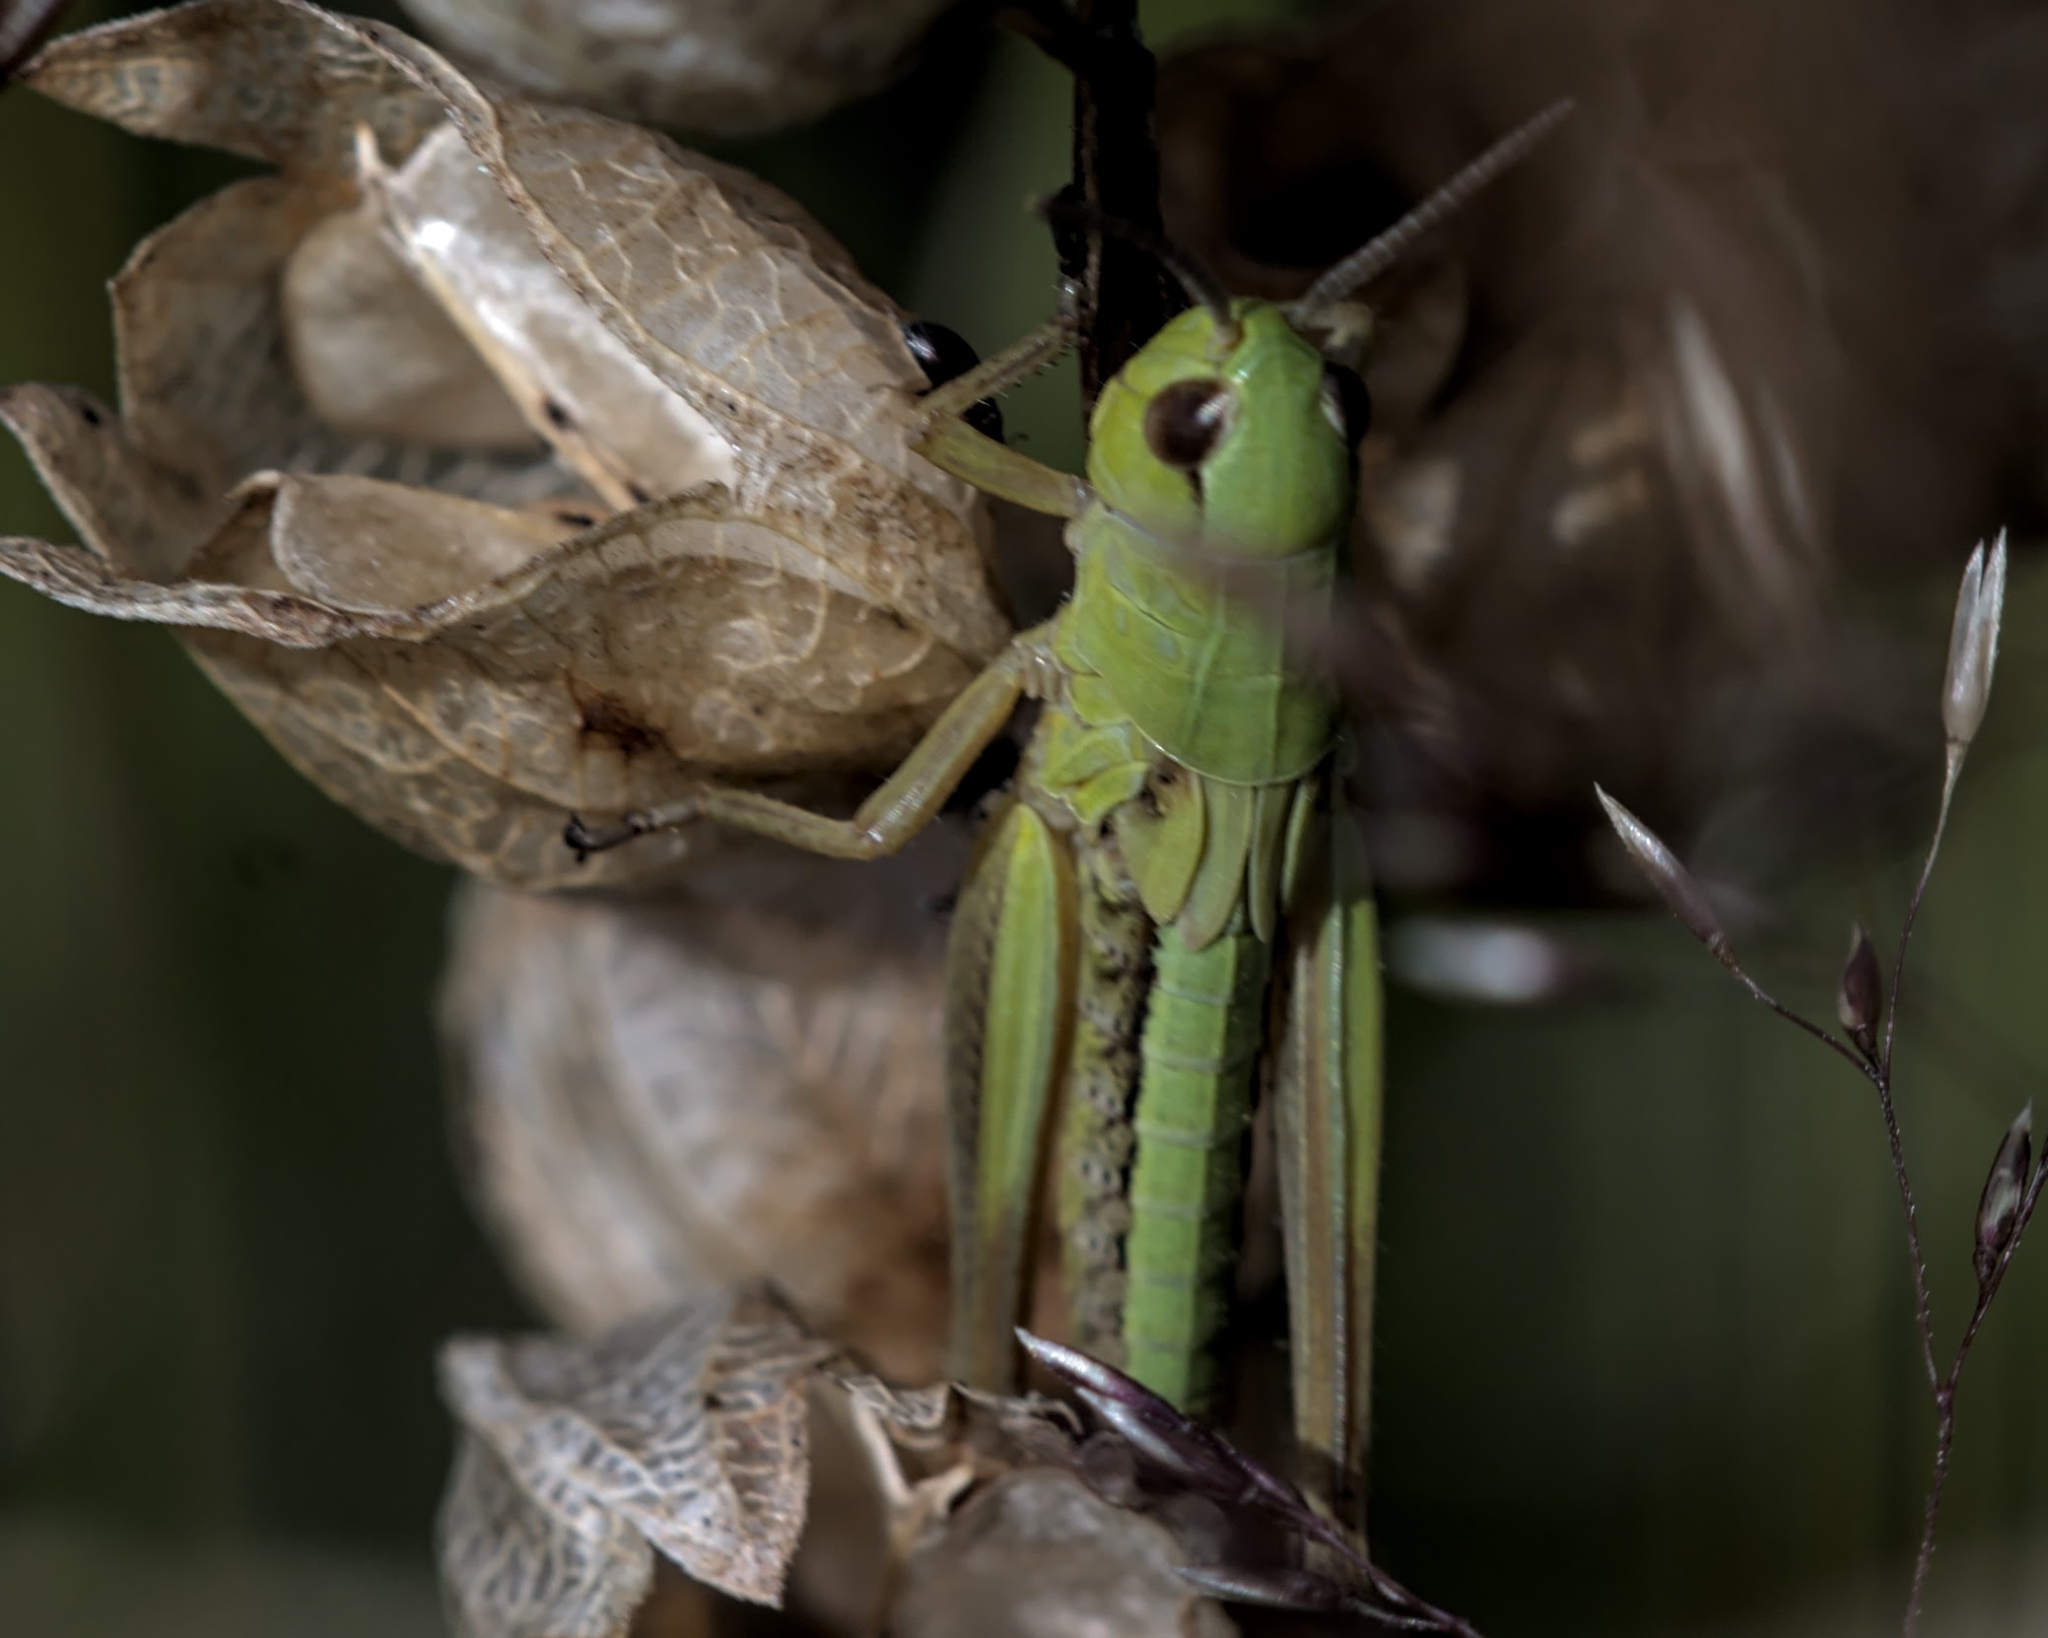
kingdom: Animalia
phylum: Arthropoda
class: Insecta
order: Orthoptera
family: Acrididae
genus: Pseudochorthippus
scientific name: Pseudochorthippus parallelus
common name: Meadow grasshopper
